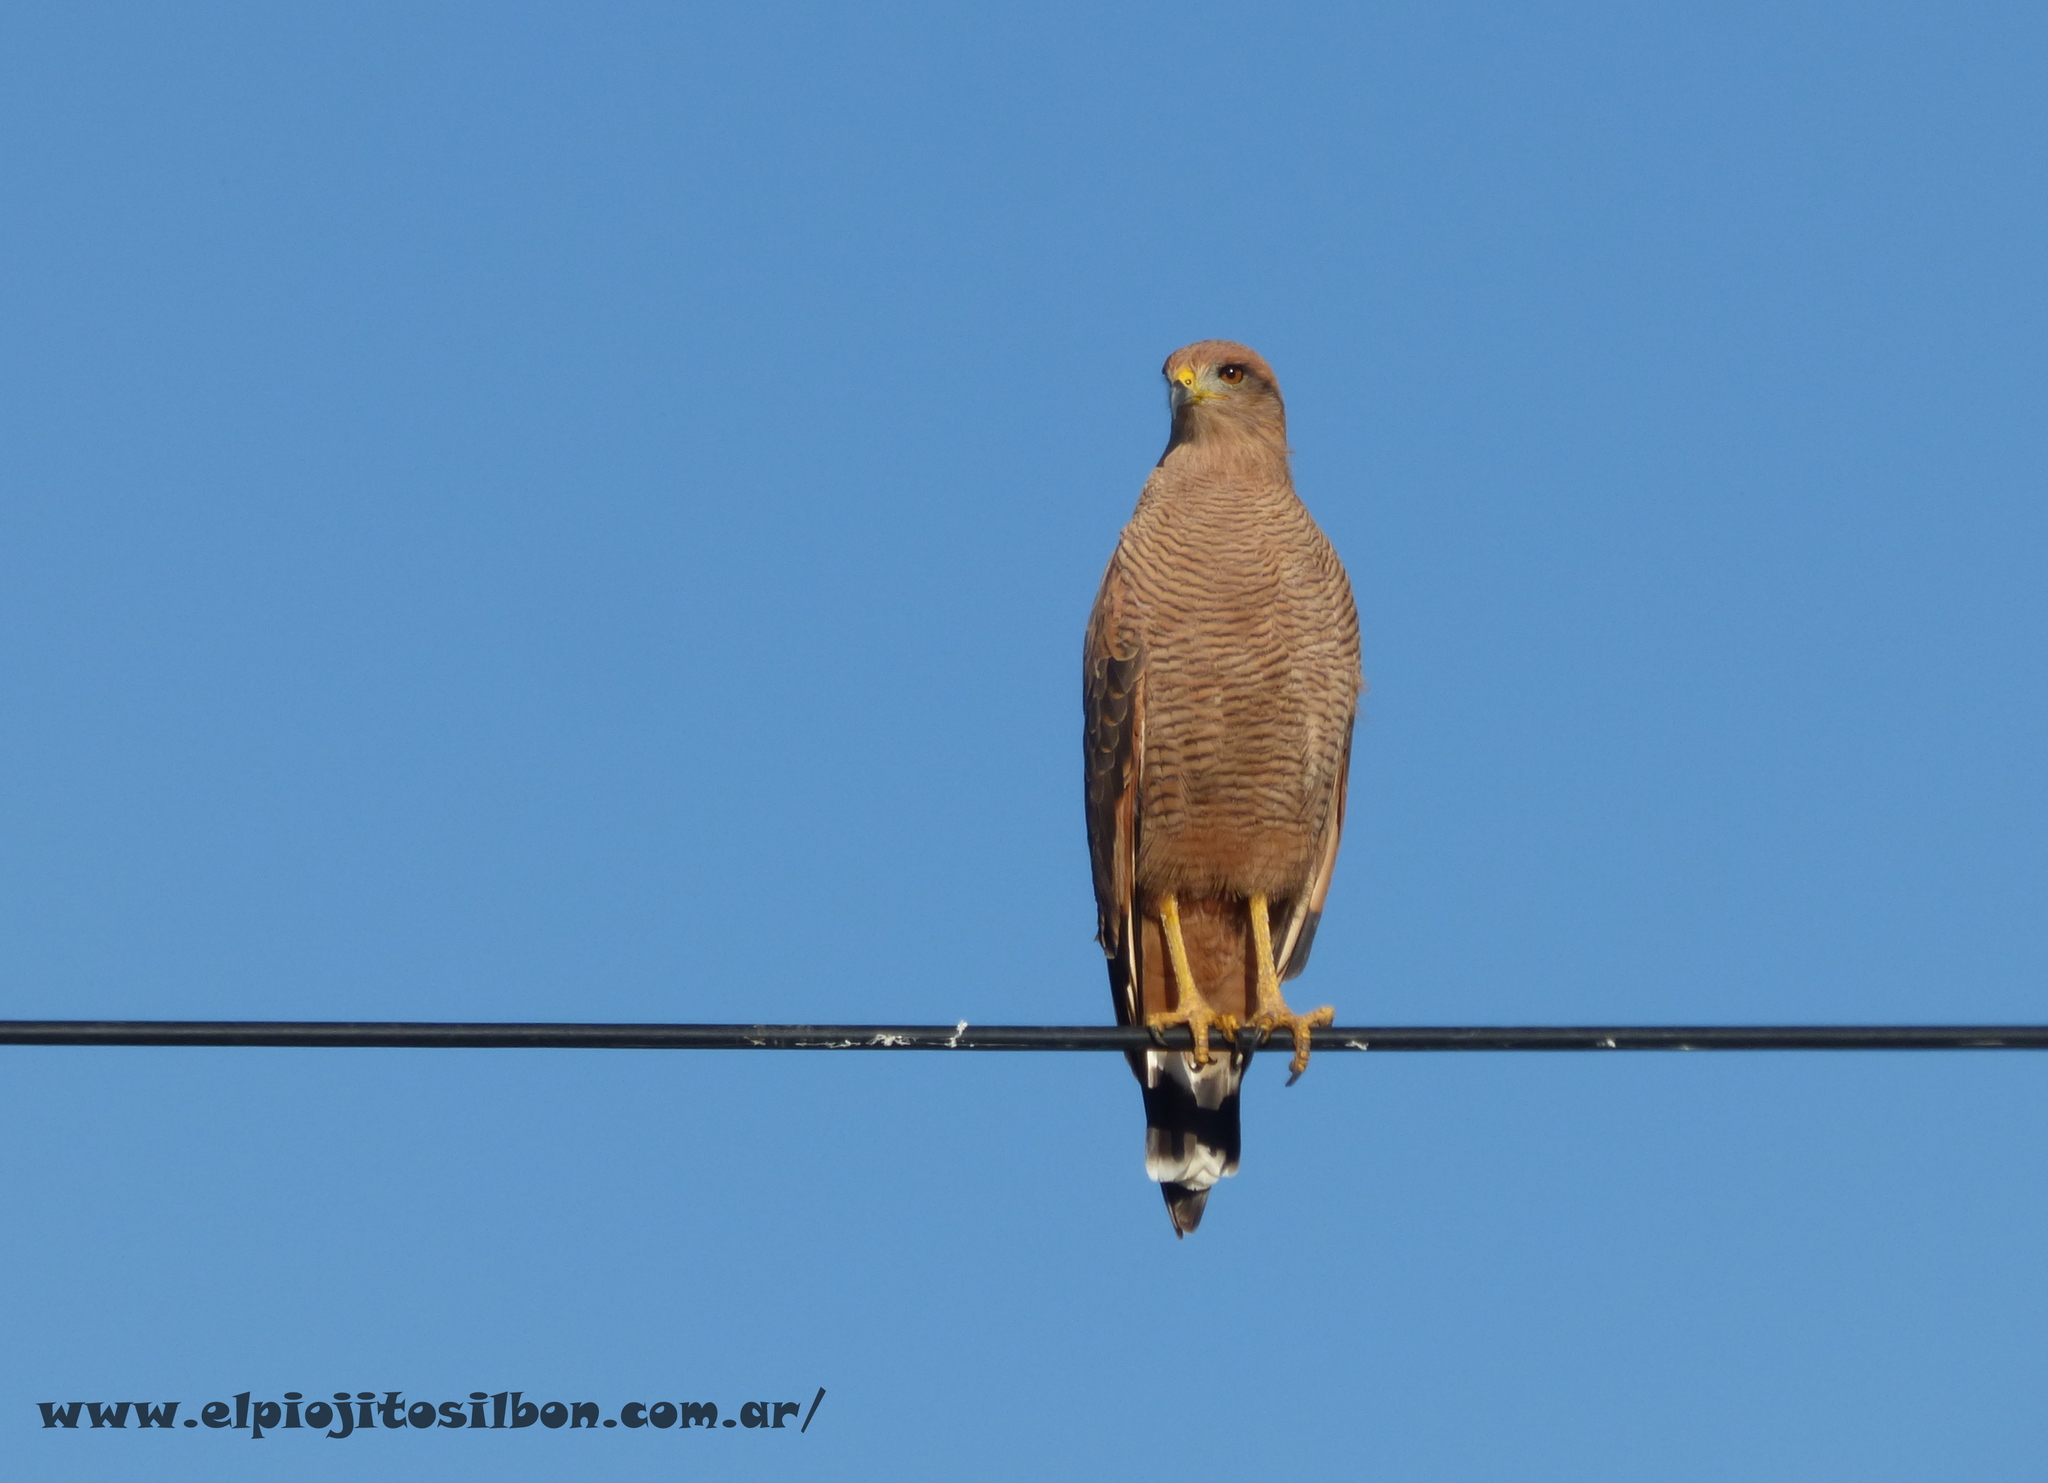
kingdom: Animalia
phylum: Chordata
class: Aves
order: Accipitriformes
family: Accipitridae
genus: Buteogallus
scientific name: Buteogallus meridionalis
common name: Savanna hawk
